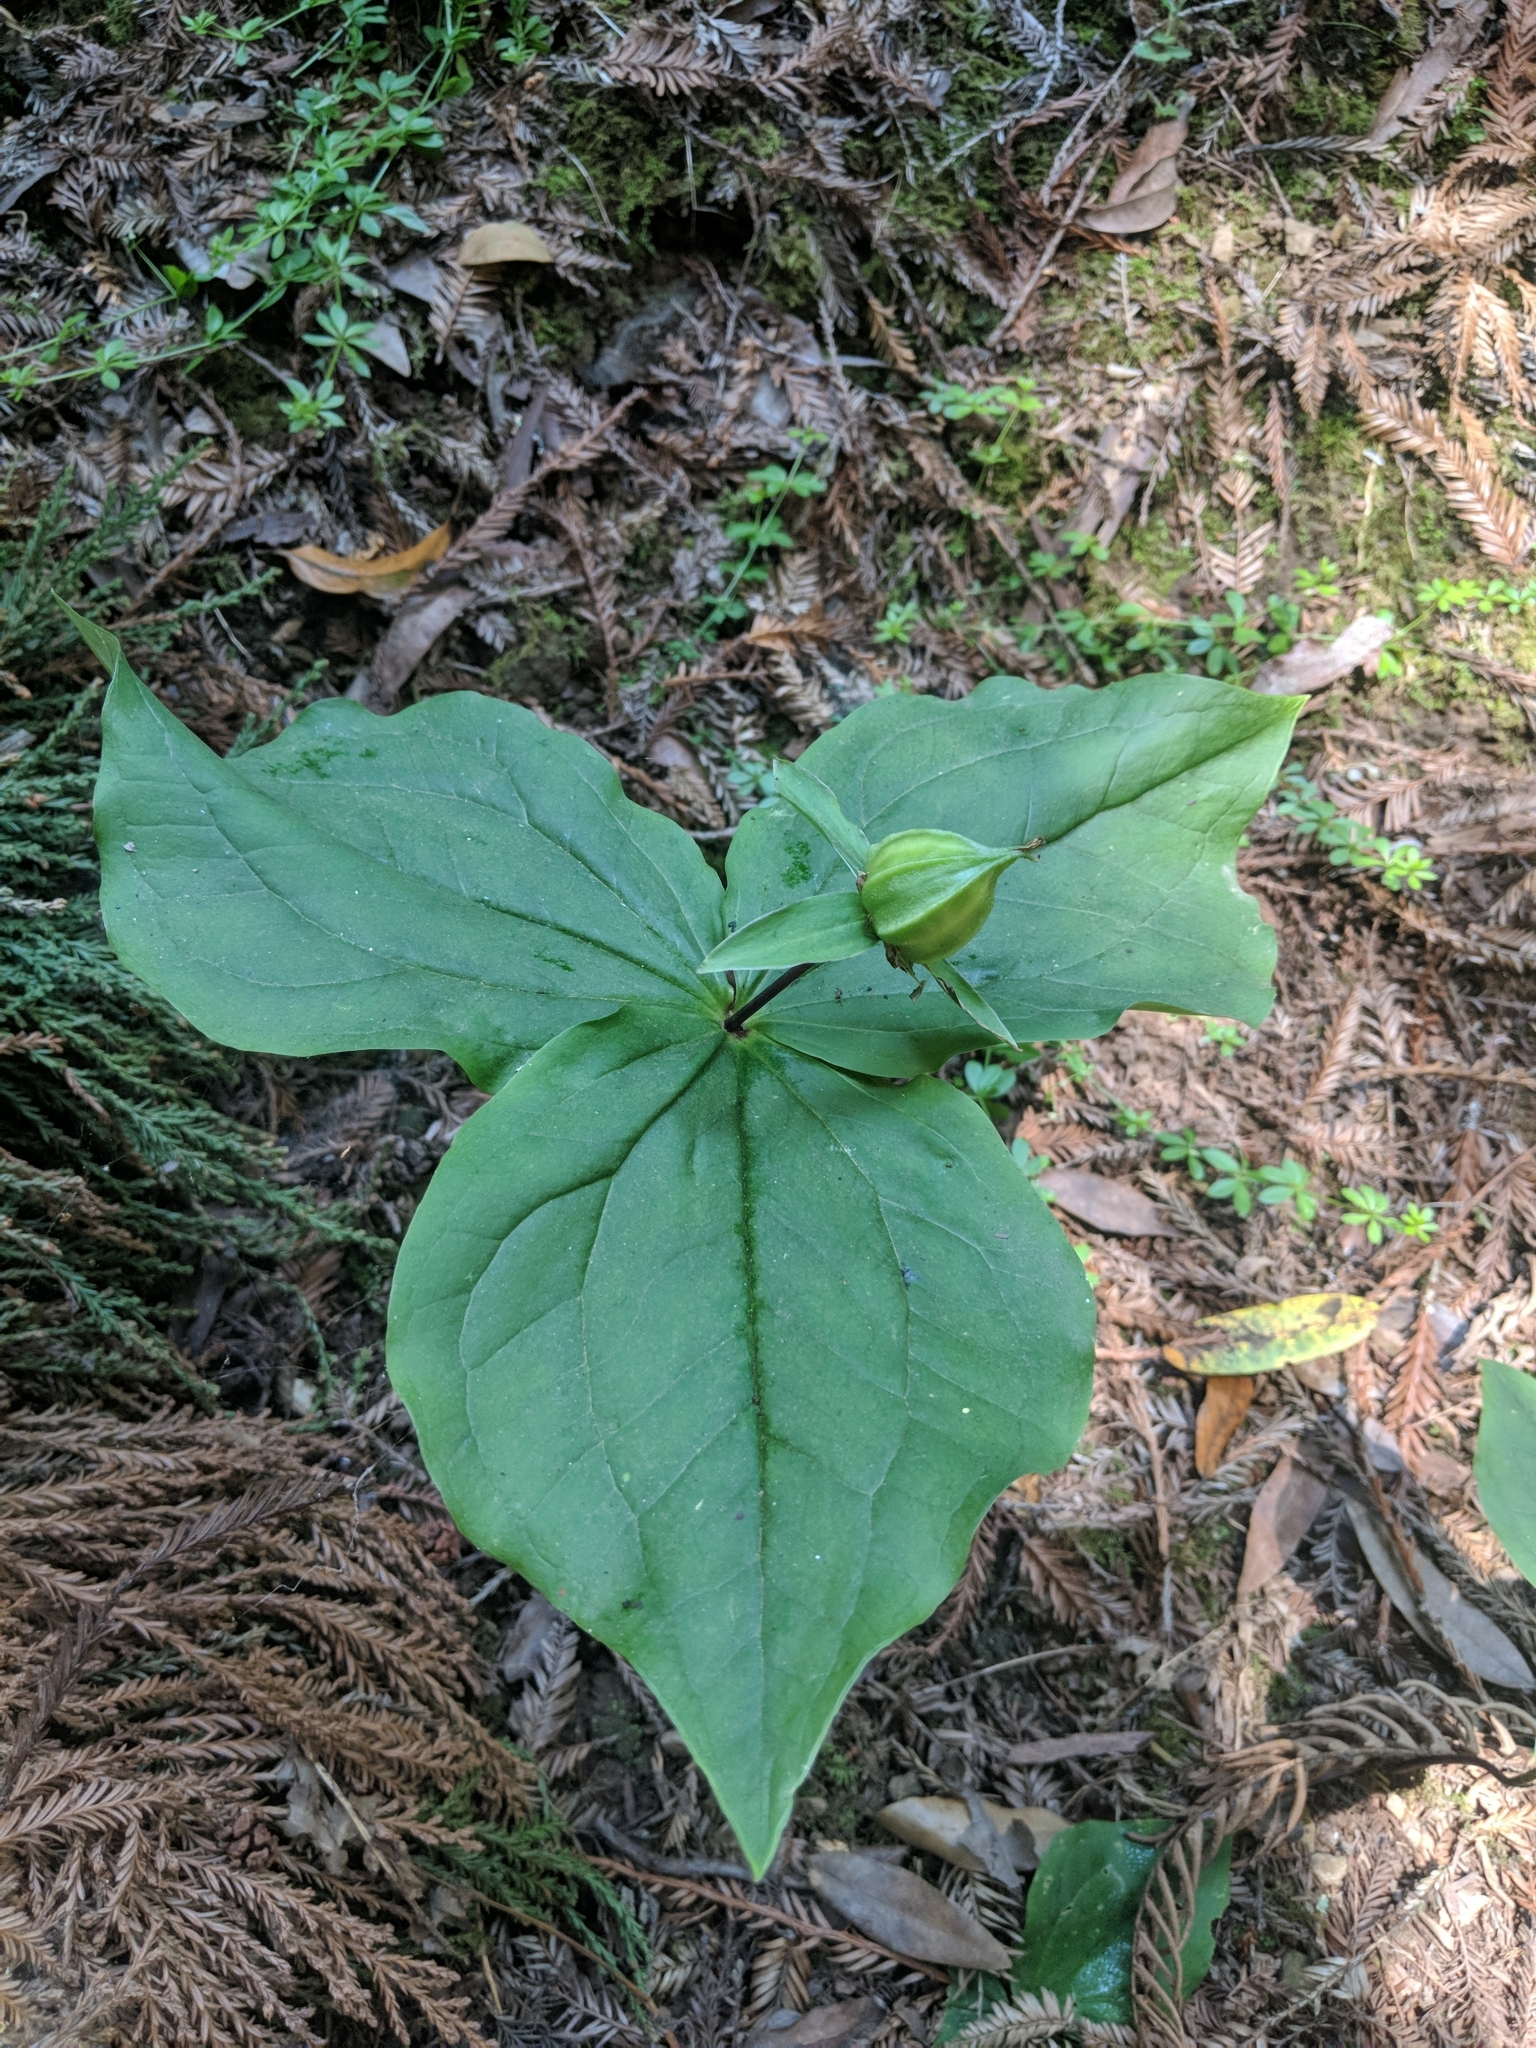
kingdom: Plantae
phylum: Tracheophyta
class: Liliopsida
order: Liliales
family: Melanthiaceae
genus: Trillium
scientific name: Trillium ovatum
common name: Pacific trillium
